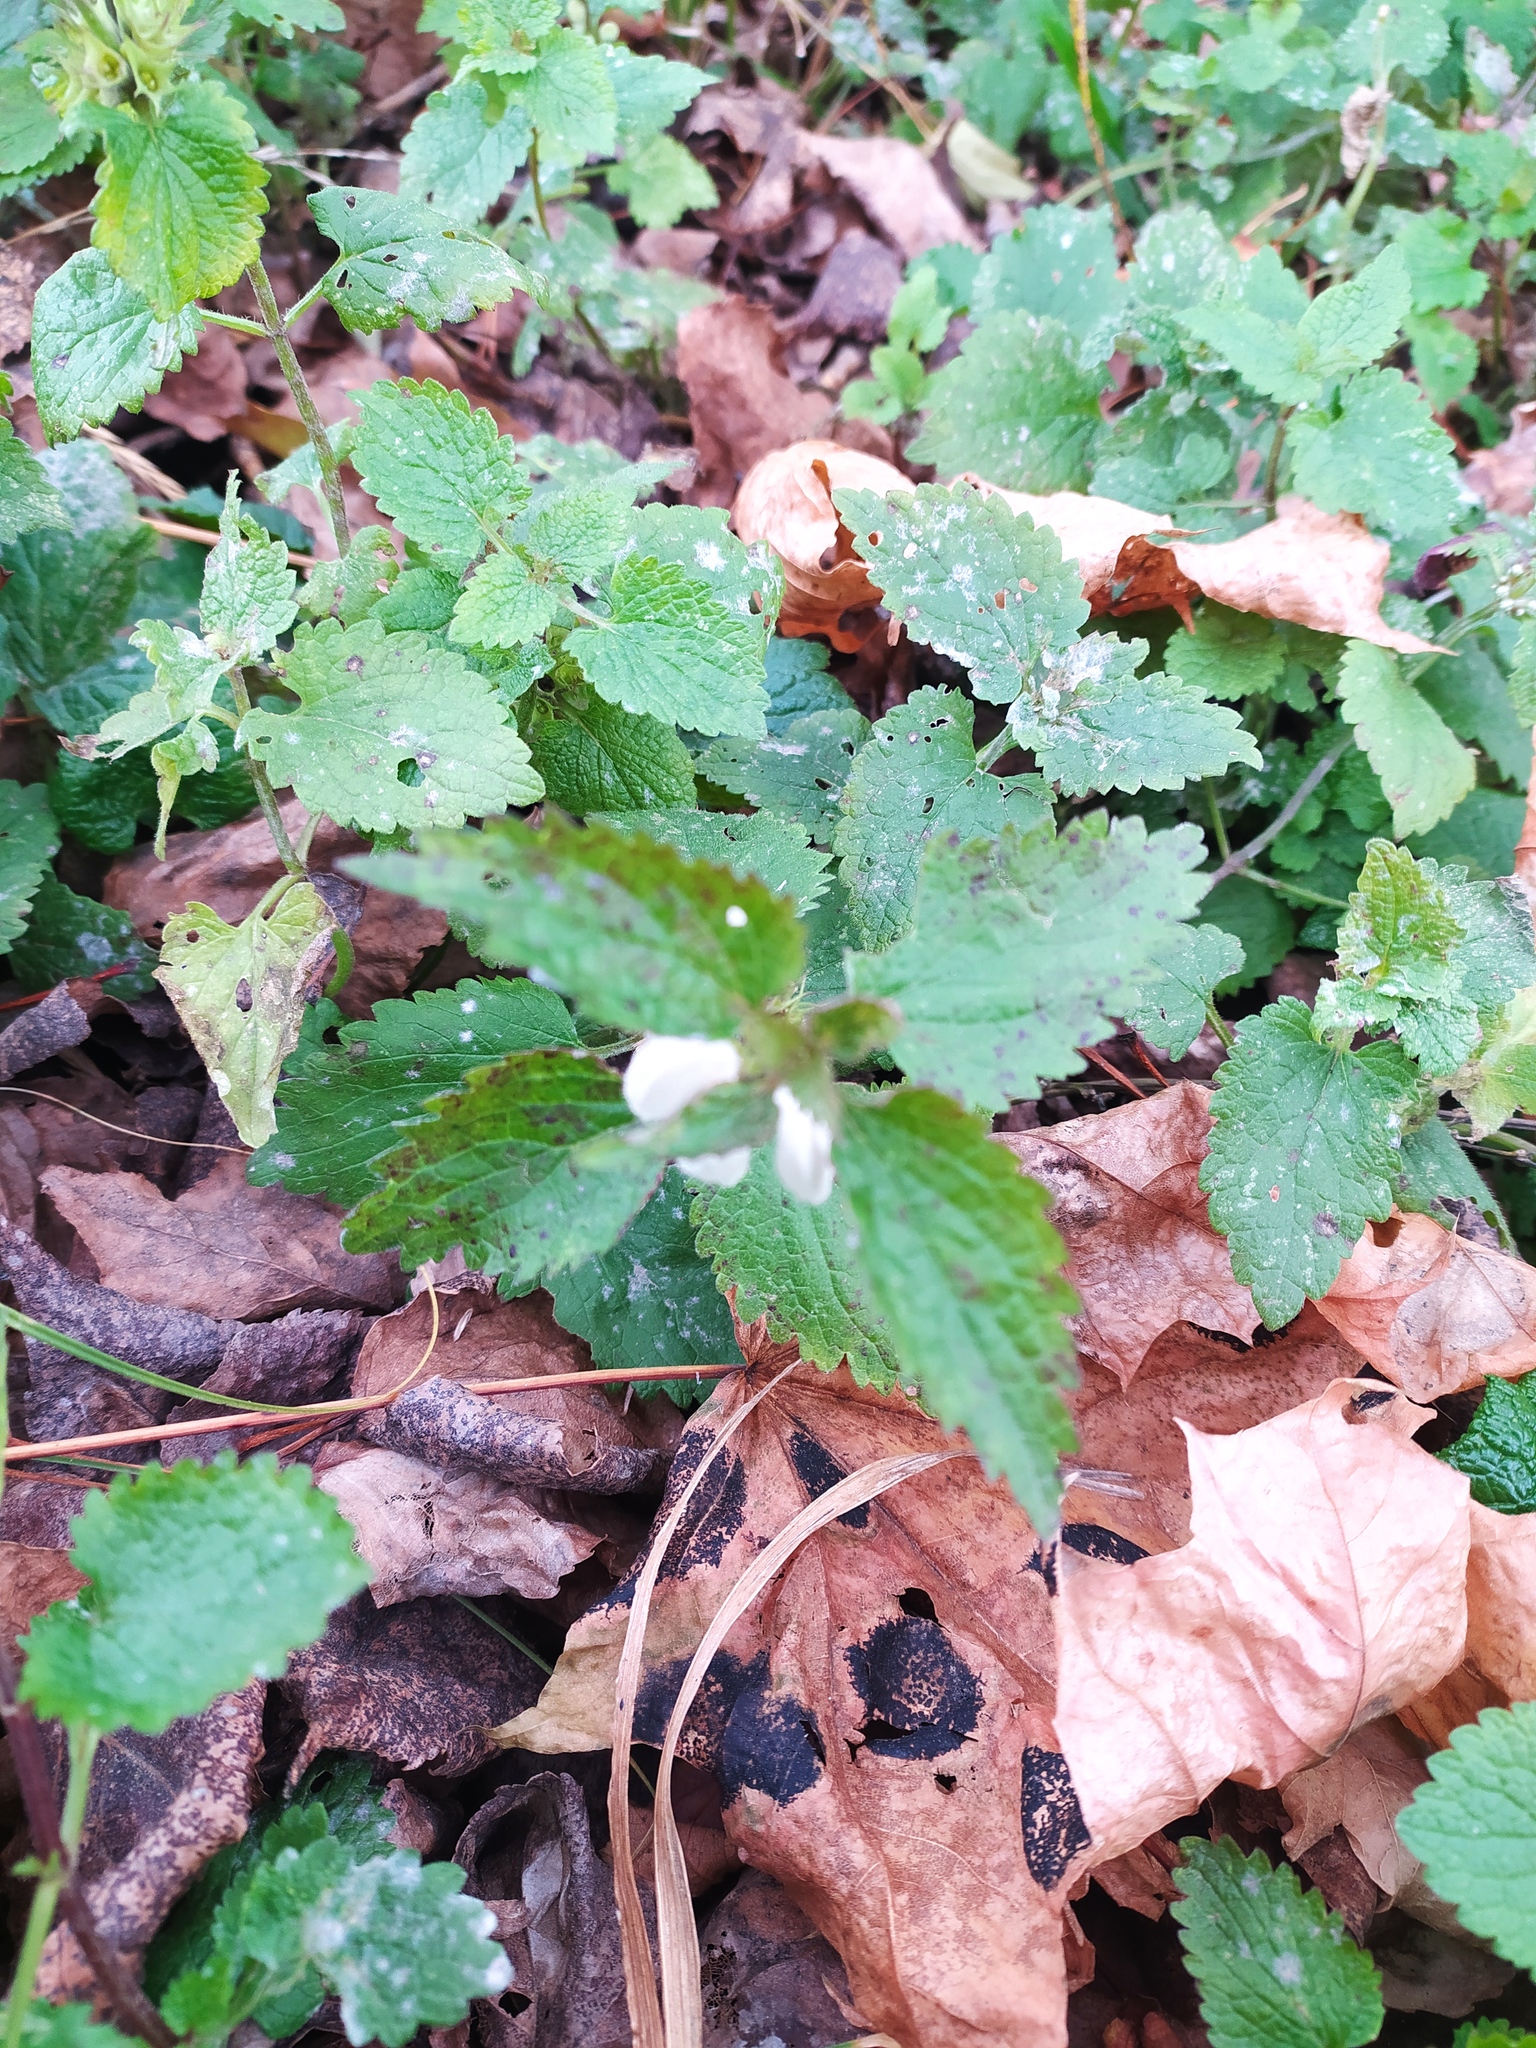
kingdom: Plantae
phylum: Tracheophyta
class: Magnoliopsida
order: Lamiales
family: Lamiaceae
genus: Lamium
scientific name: Lamium album
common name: White dead-nettle
